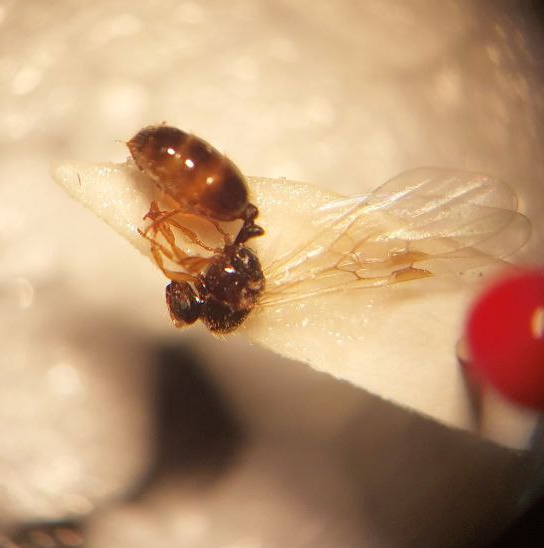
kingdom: Animalia
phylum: Arthropoda
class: Insecta
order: Hymenoptera
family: Formicidae
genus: Solenopsis
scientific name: Solenopsis fugax
